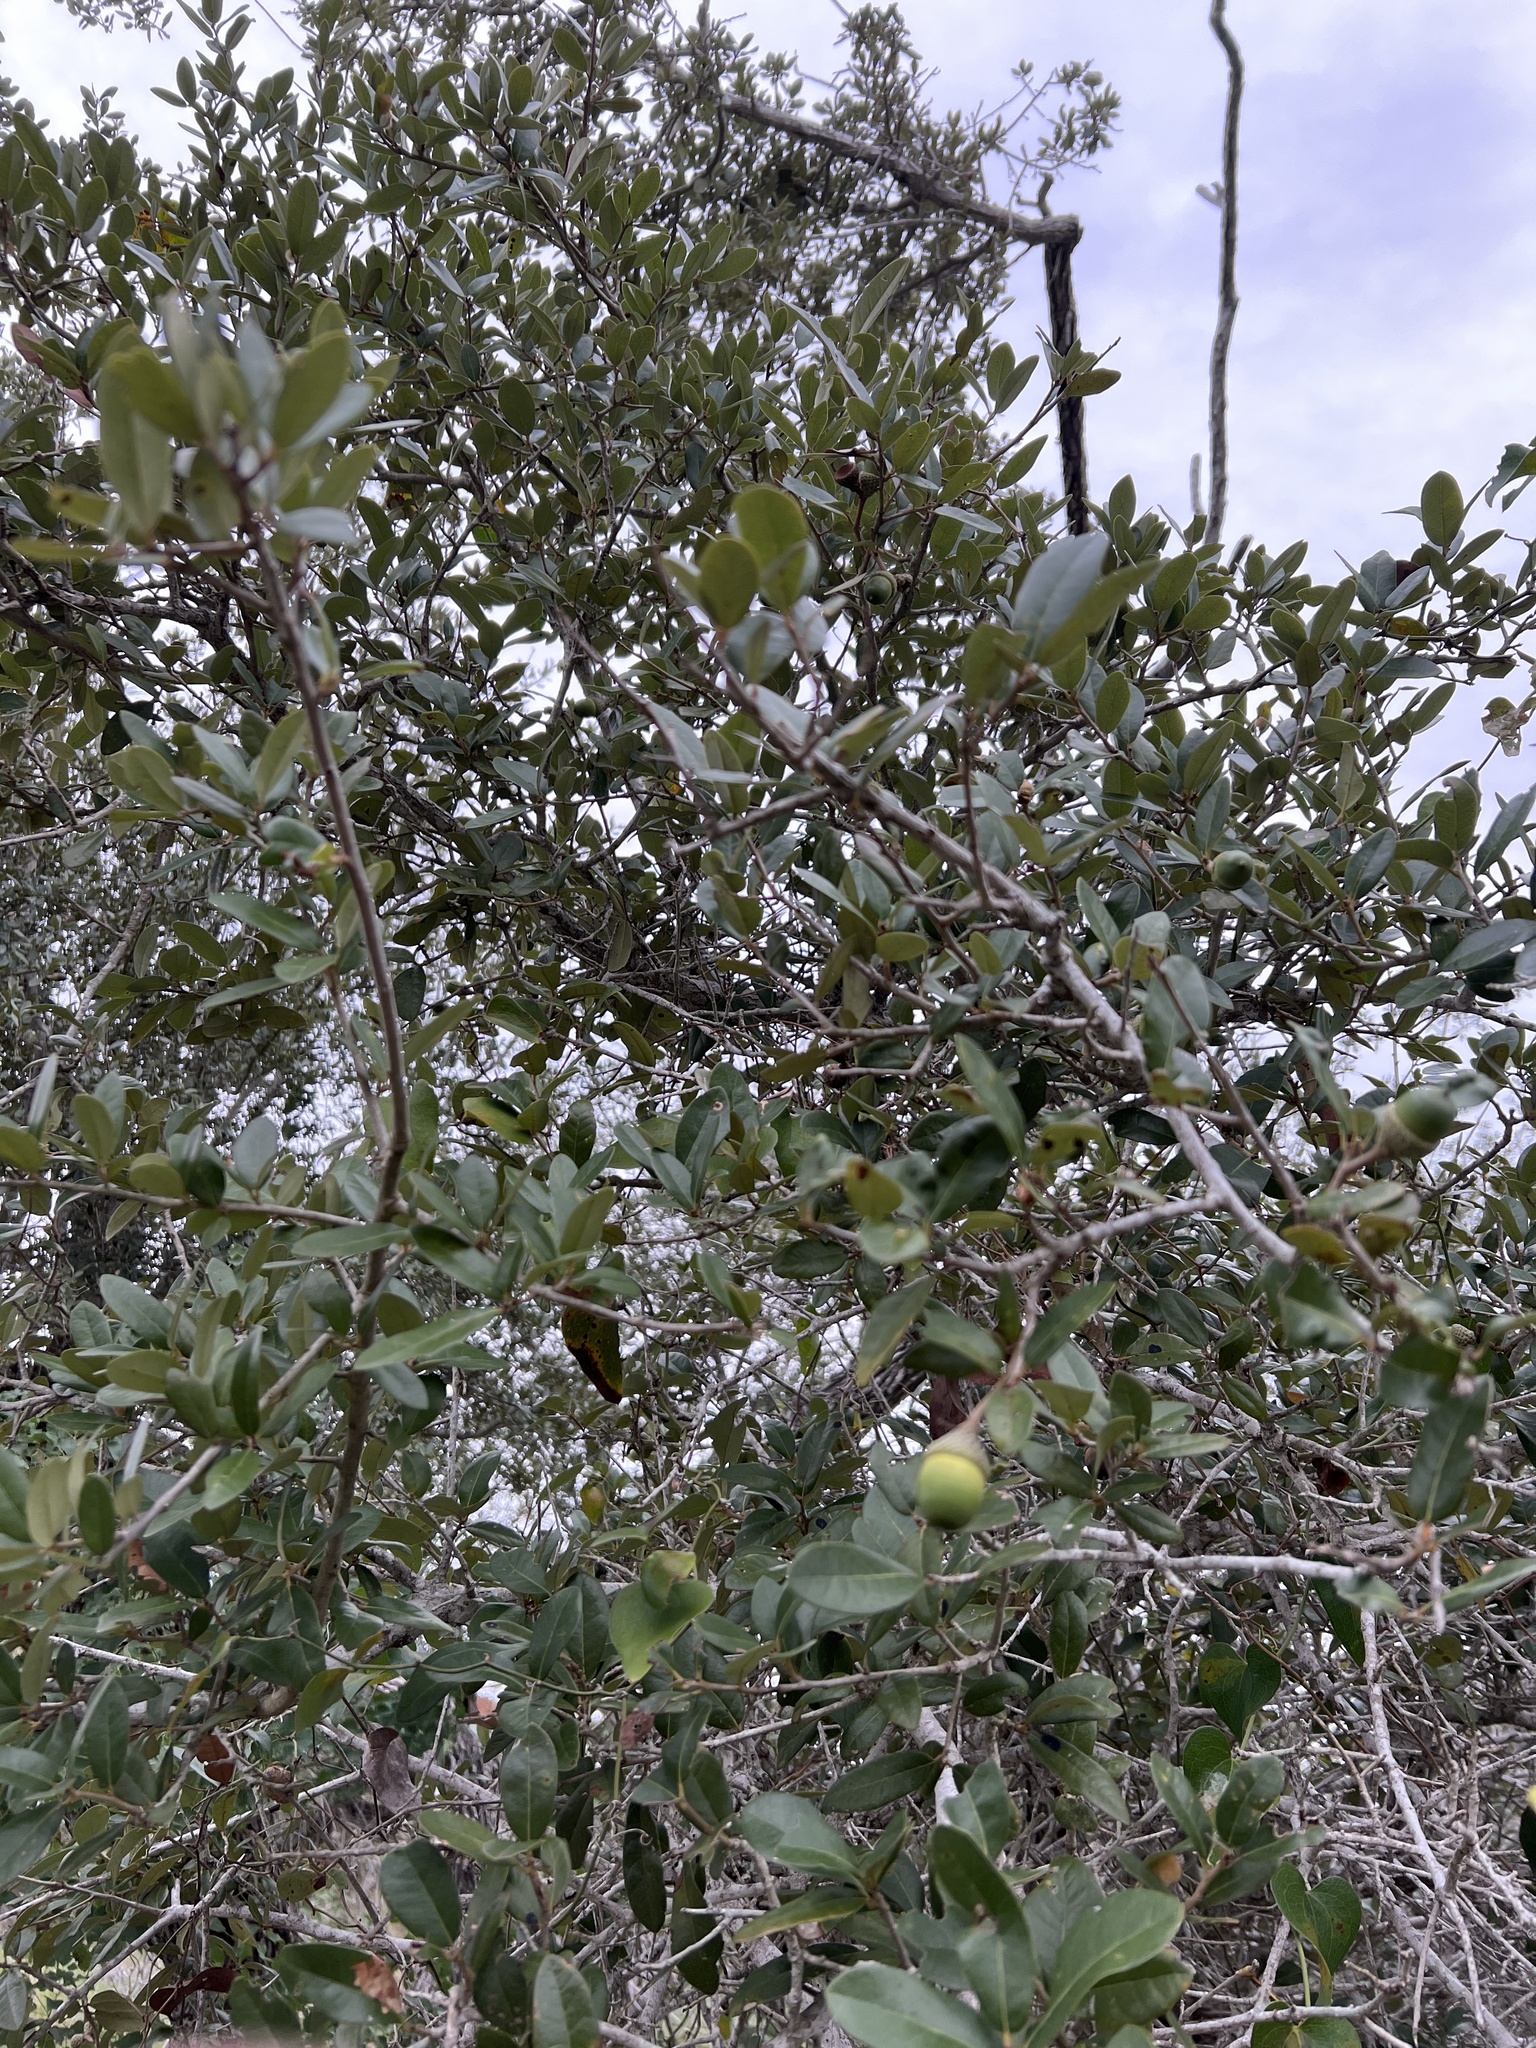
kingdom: Plantae
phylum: Tracheophyta
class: Magnoliopsida
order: Fagales
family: Fagaceae
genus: Quercus
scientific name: Quercus virginiana
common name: Southern live oak
